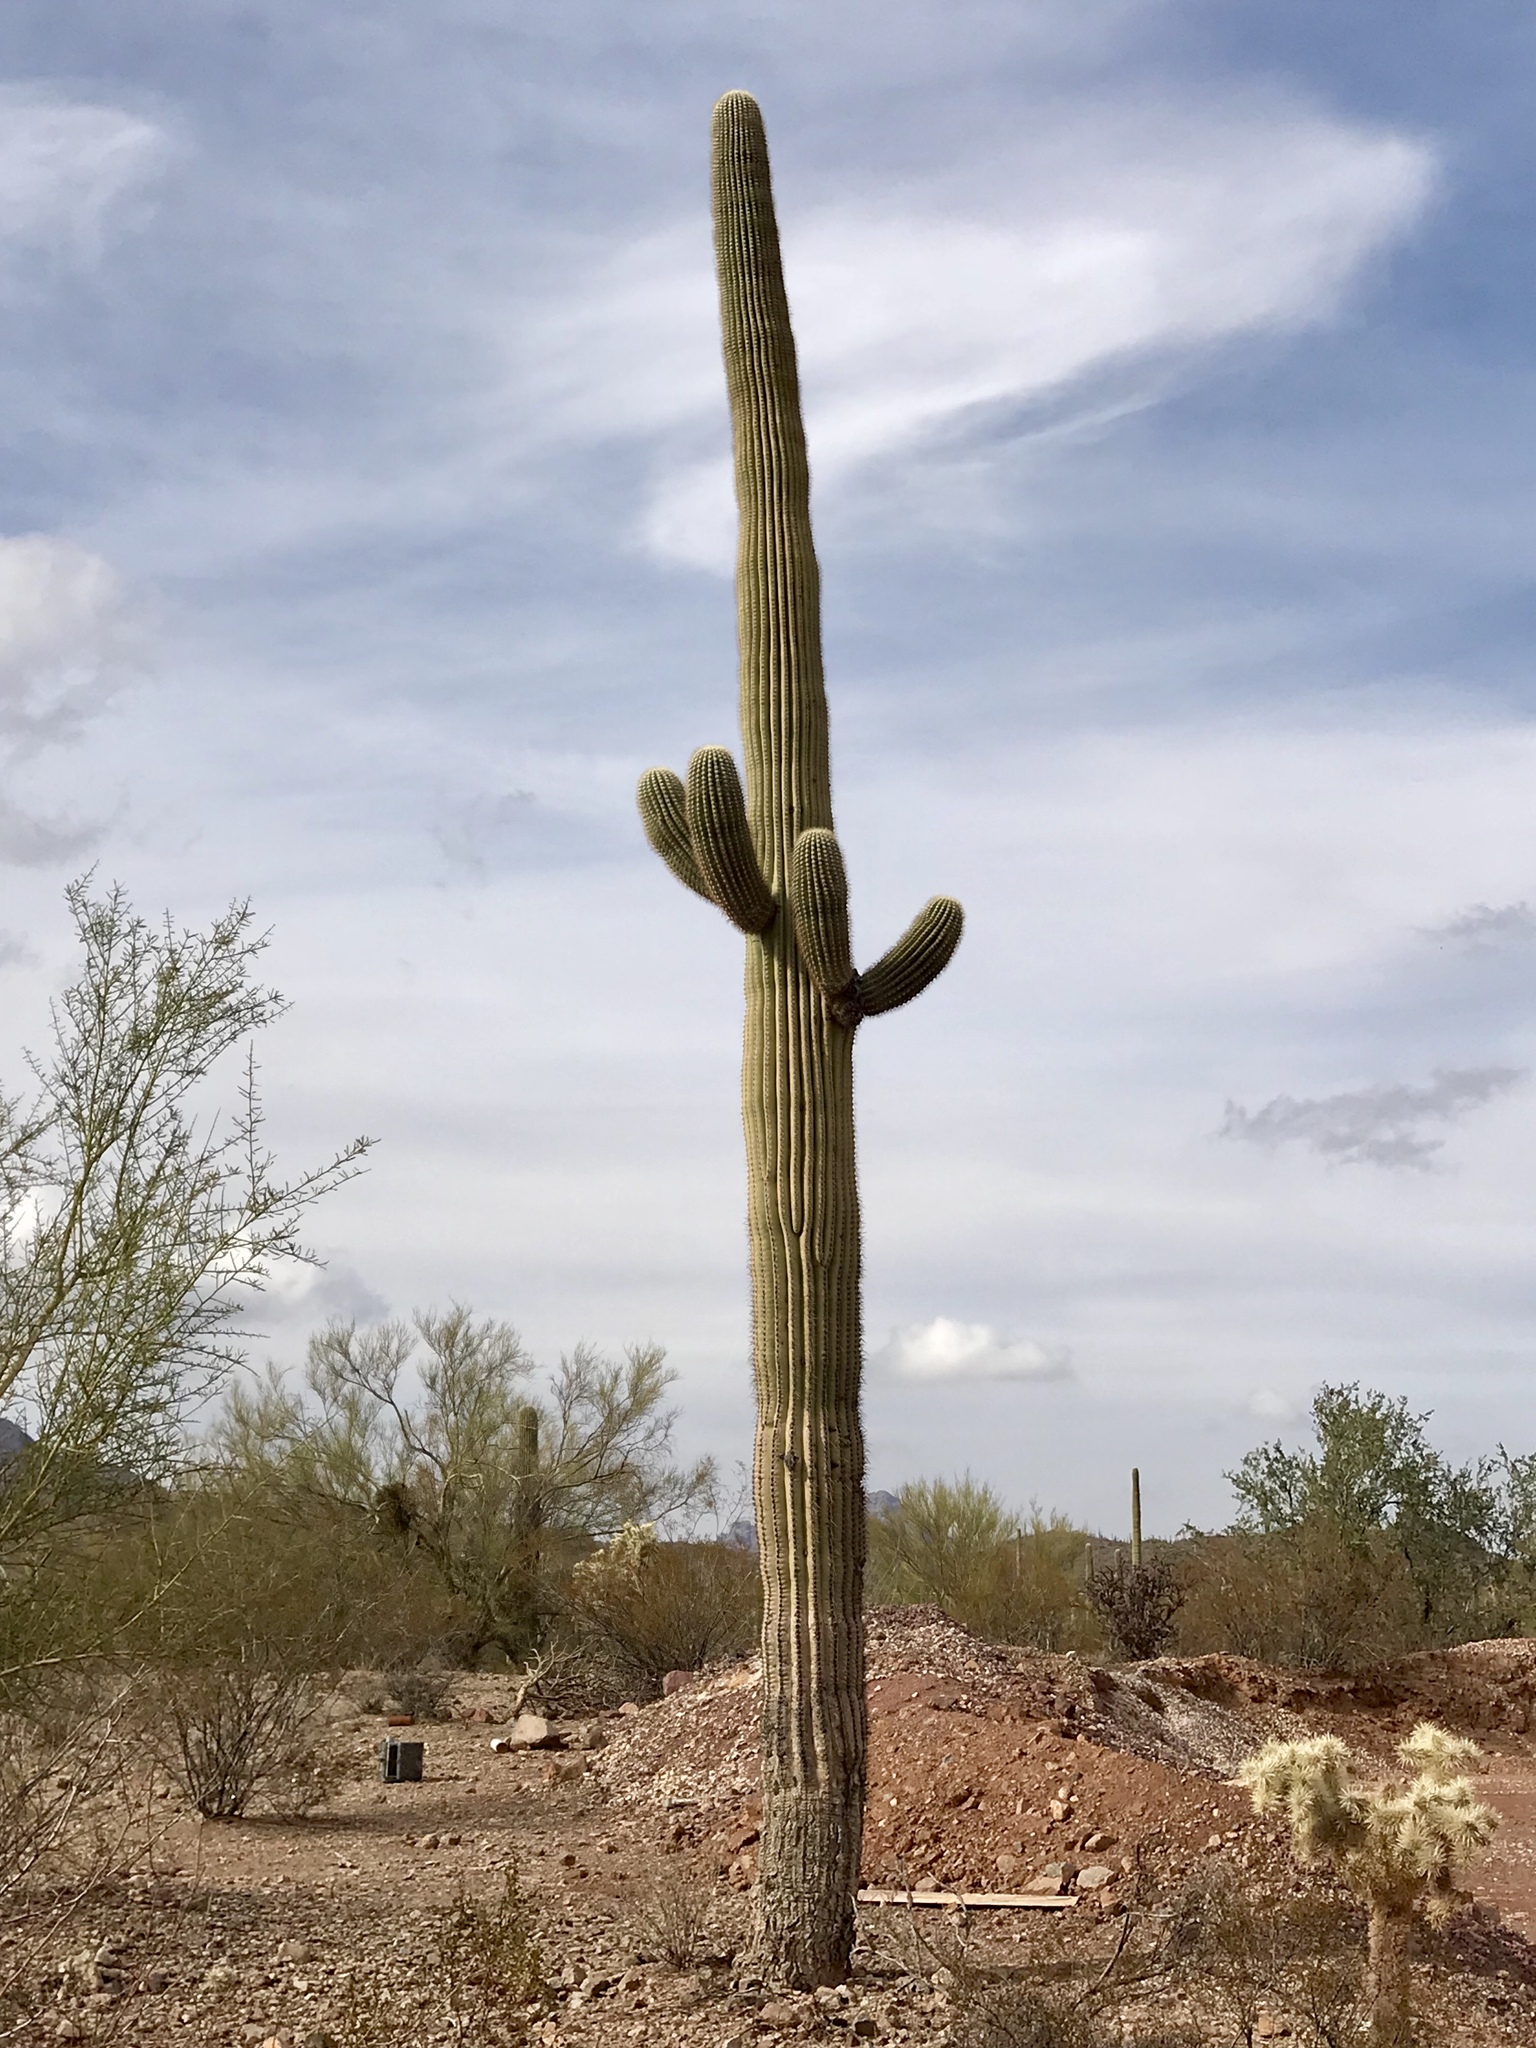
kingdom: Plantae
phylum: Tracheophyta
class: Magnoliopsida
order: Caryophyllales
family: Cactaceae
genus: Carnegiea
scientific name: Carnegiea gigantea
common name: Saguaro
